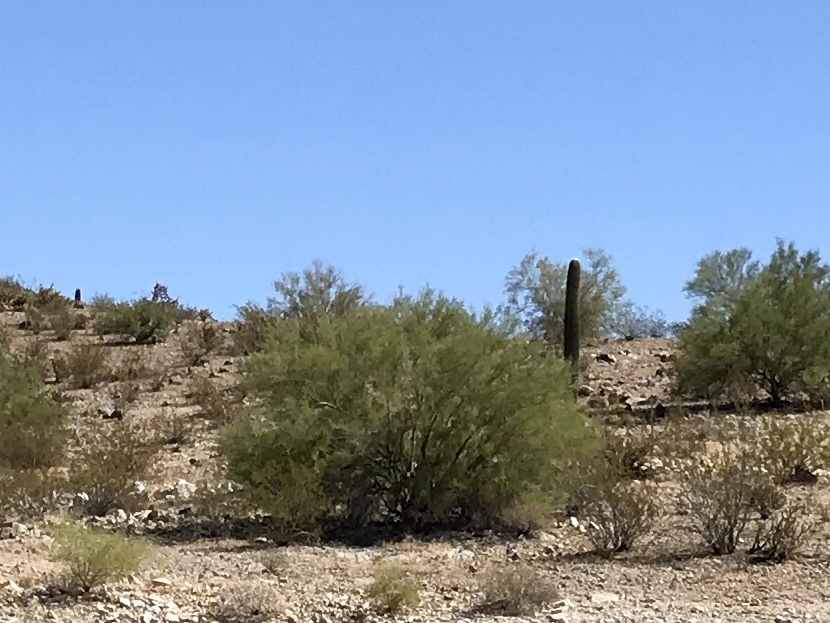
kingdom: Plantae
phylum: Tracheophyta
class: Magnoliopsida
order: Fabales
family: Fabaceae
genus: Parkinsonia
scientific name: Parkinsonia florida
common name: Blue paloverde
